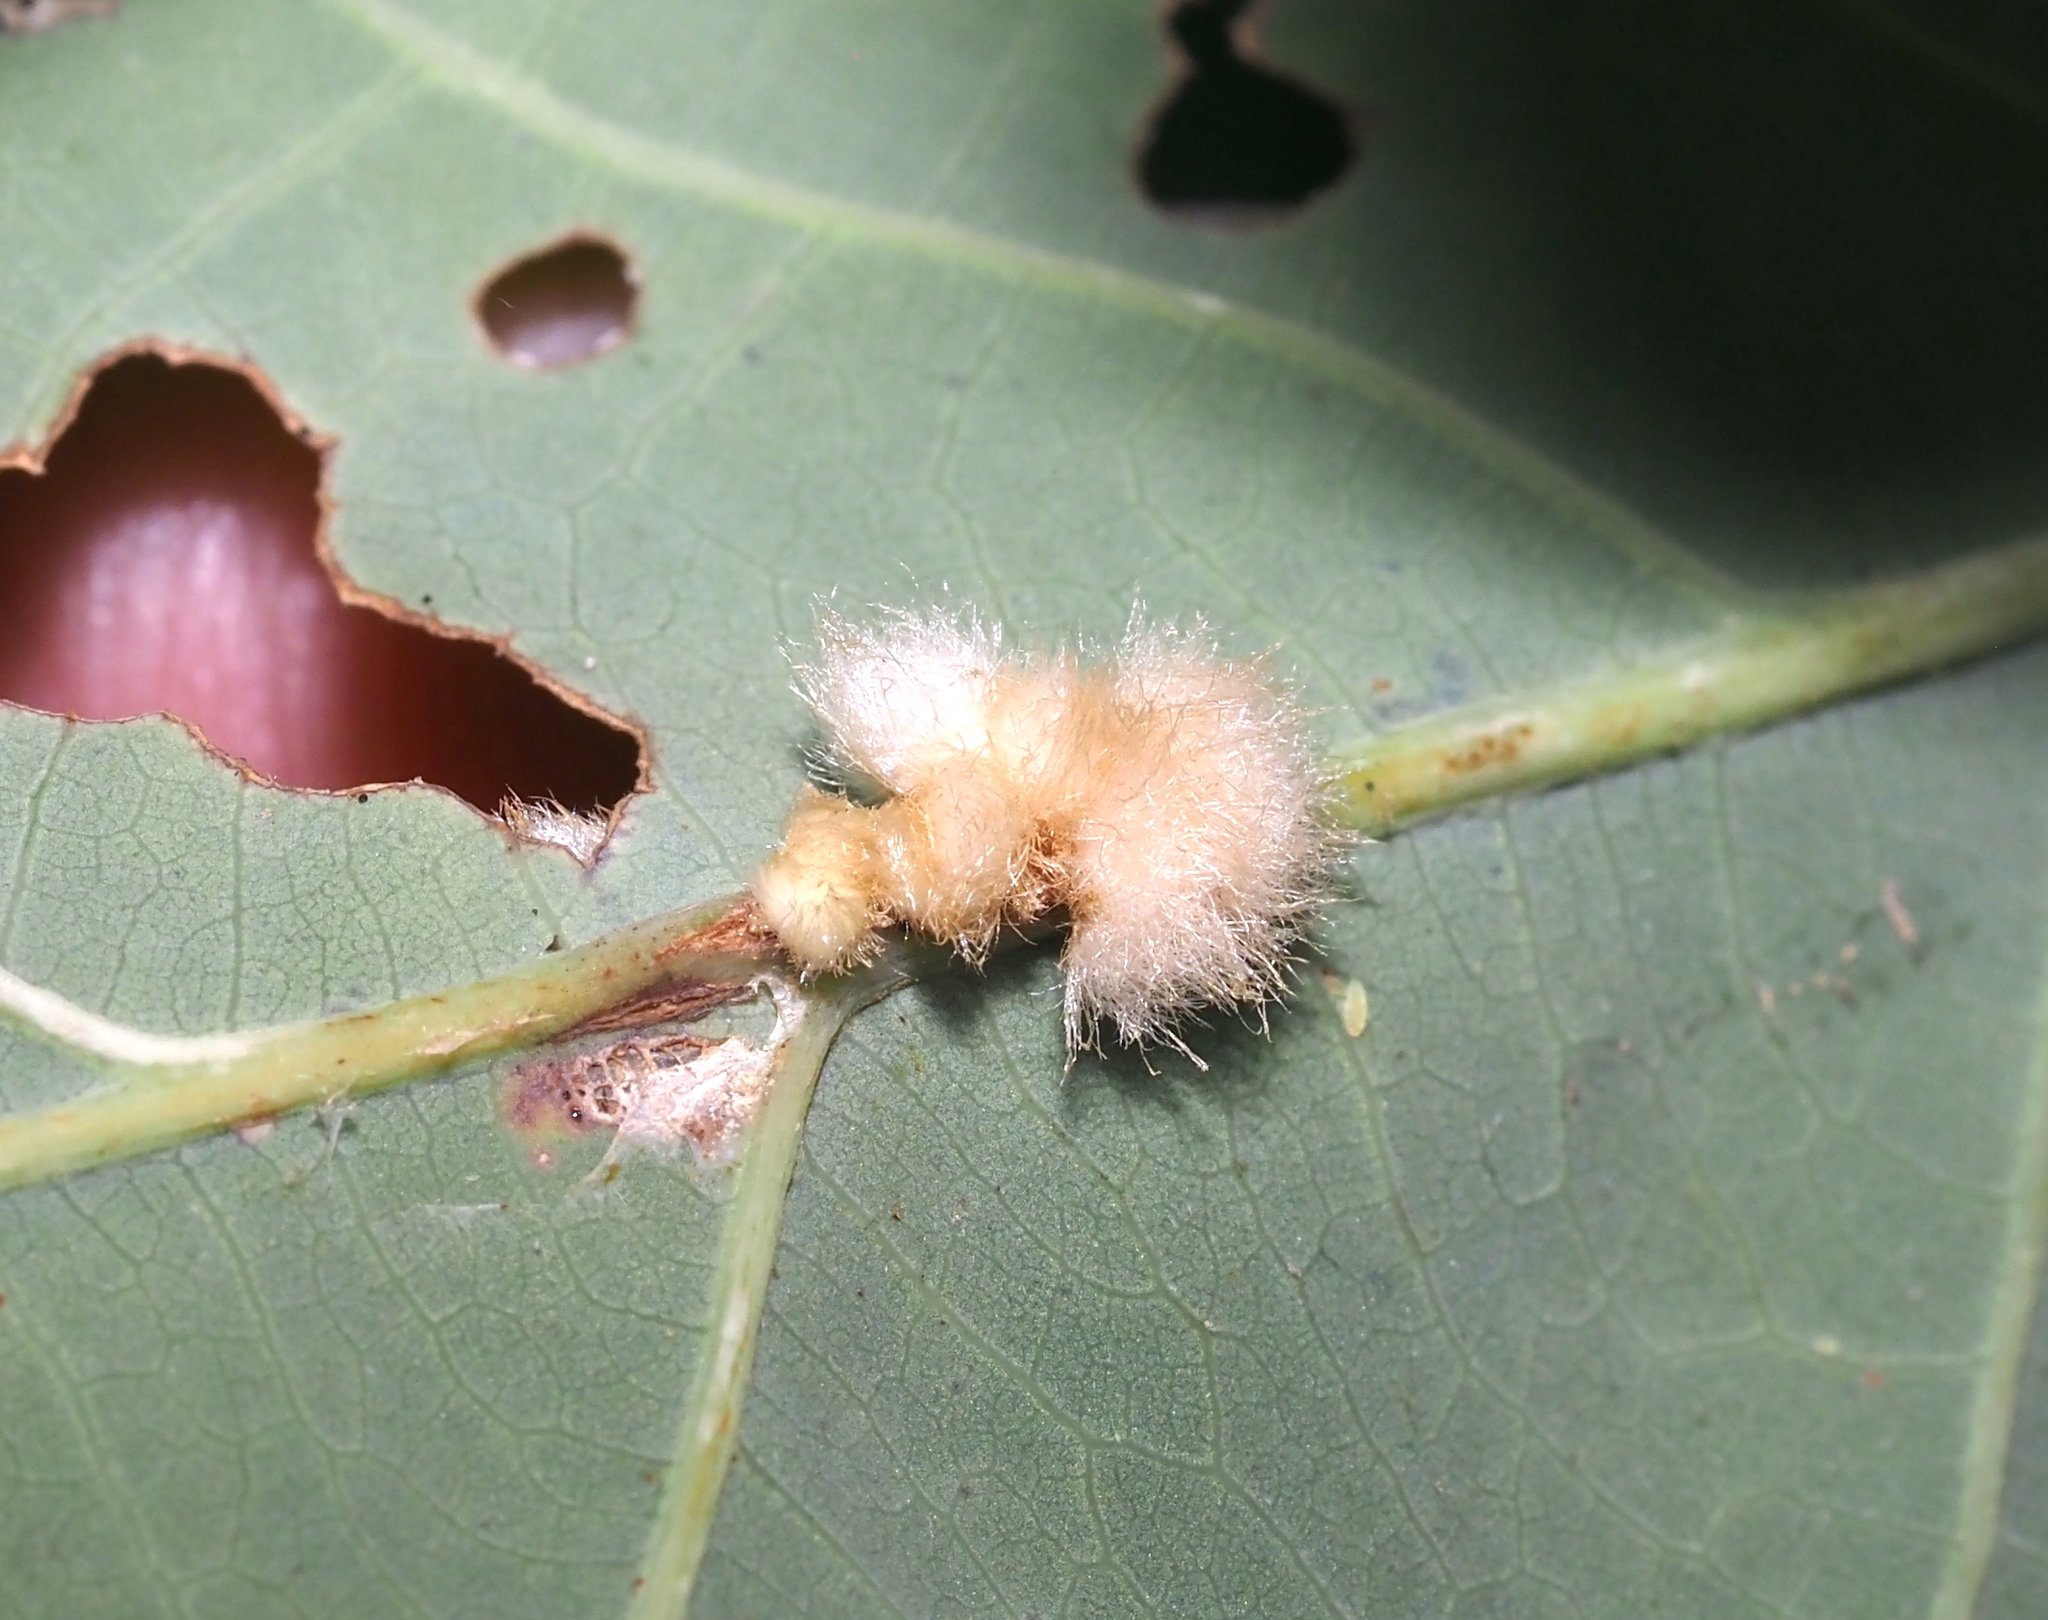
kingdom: Animalia
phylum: Arthropoda
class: Insecta
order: Hymenoptera
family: Cynipidae
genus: Andricus
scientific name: Andricus quercusflocci
